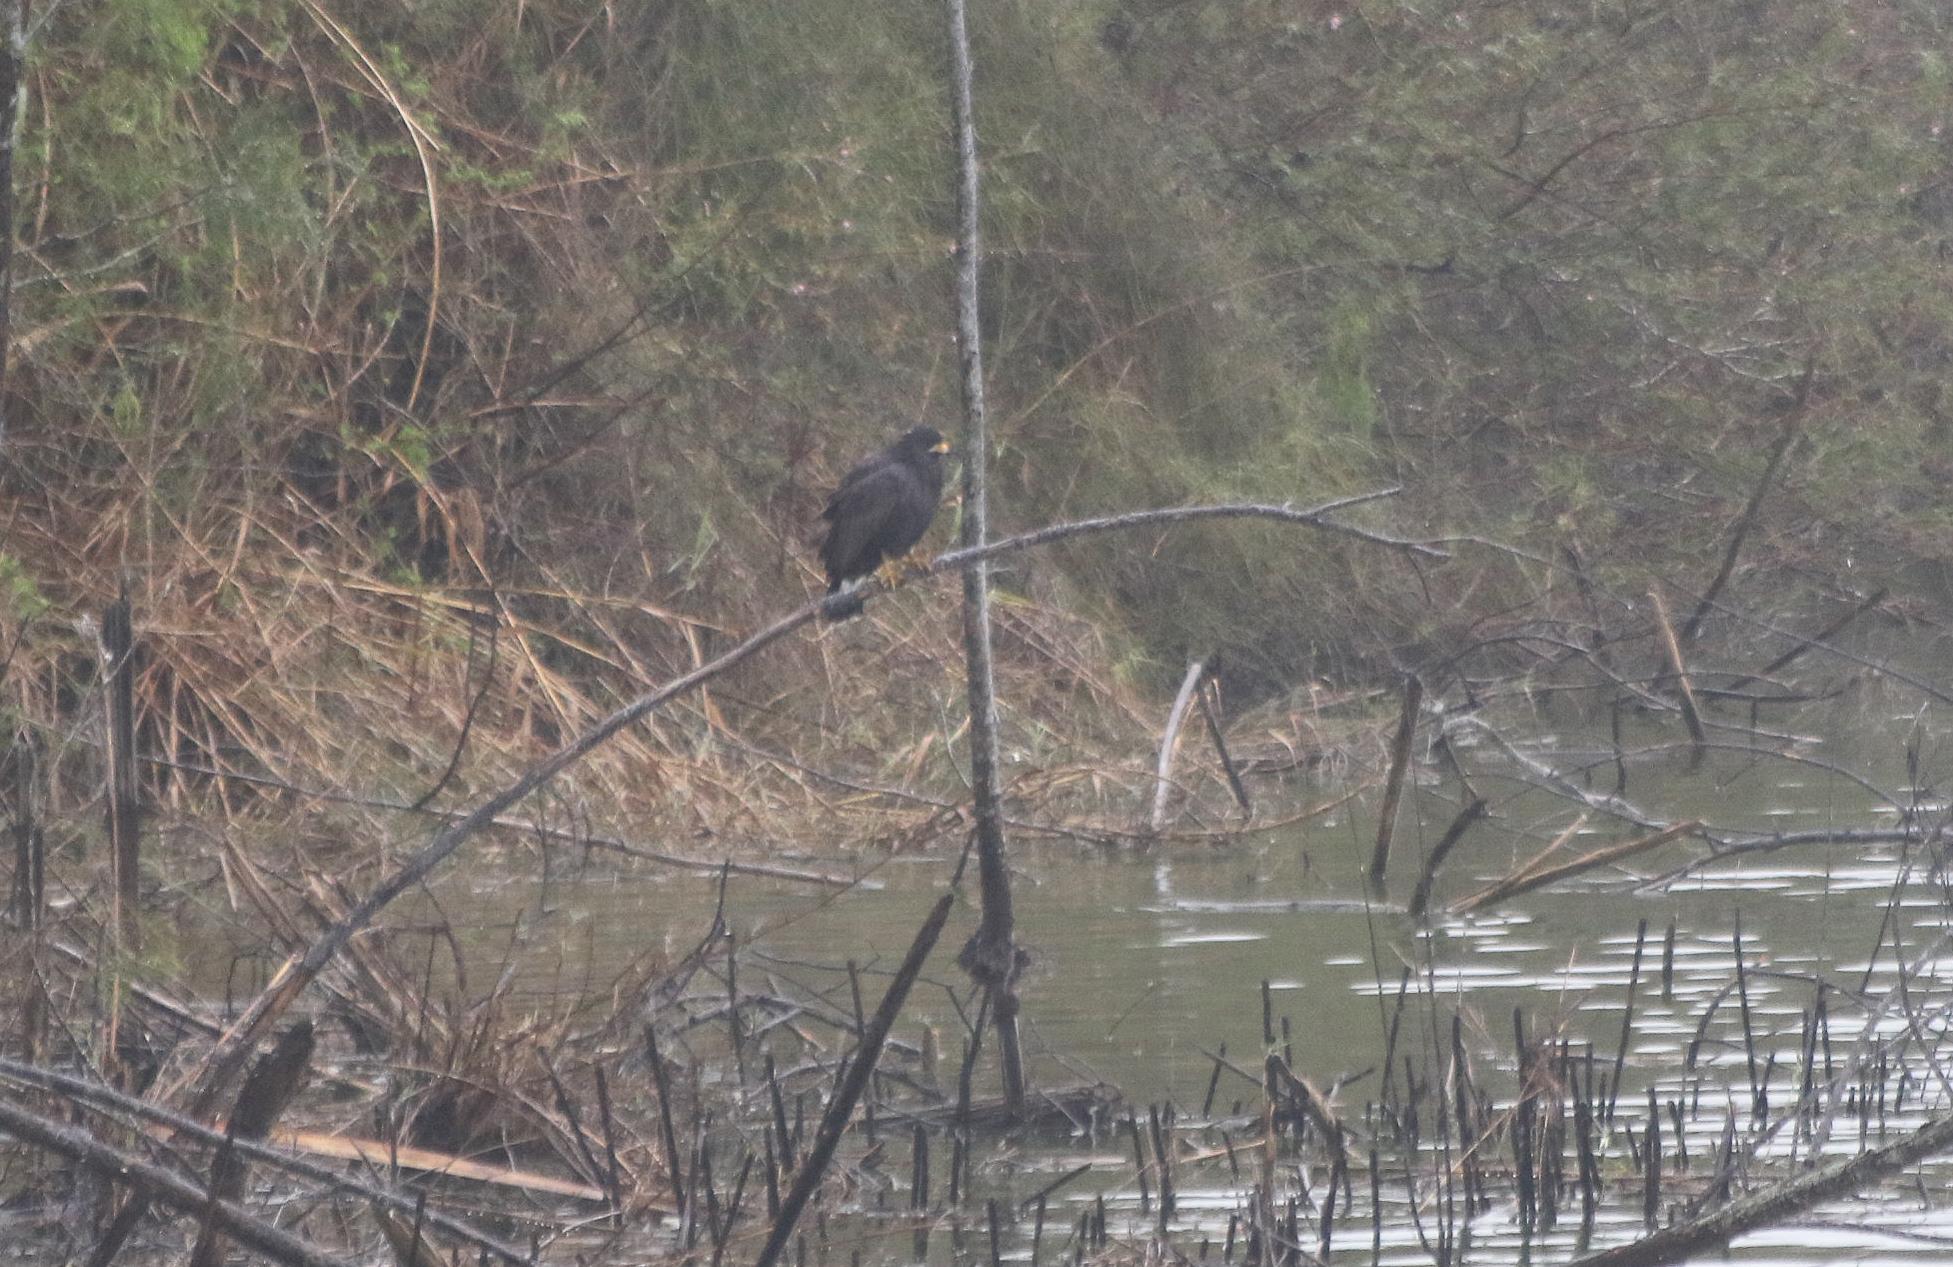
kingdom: Animalia
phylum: Chordata
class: Aves
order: Accipitriformes
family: Accipitridae
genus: Buteogallus
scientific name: Buteogallus anthracinus
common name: Common black hawk
